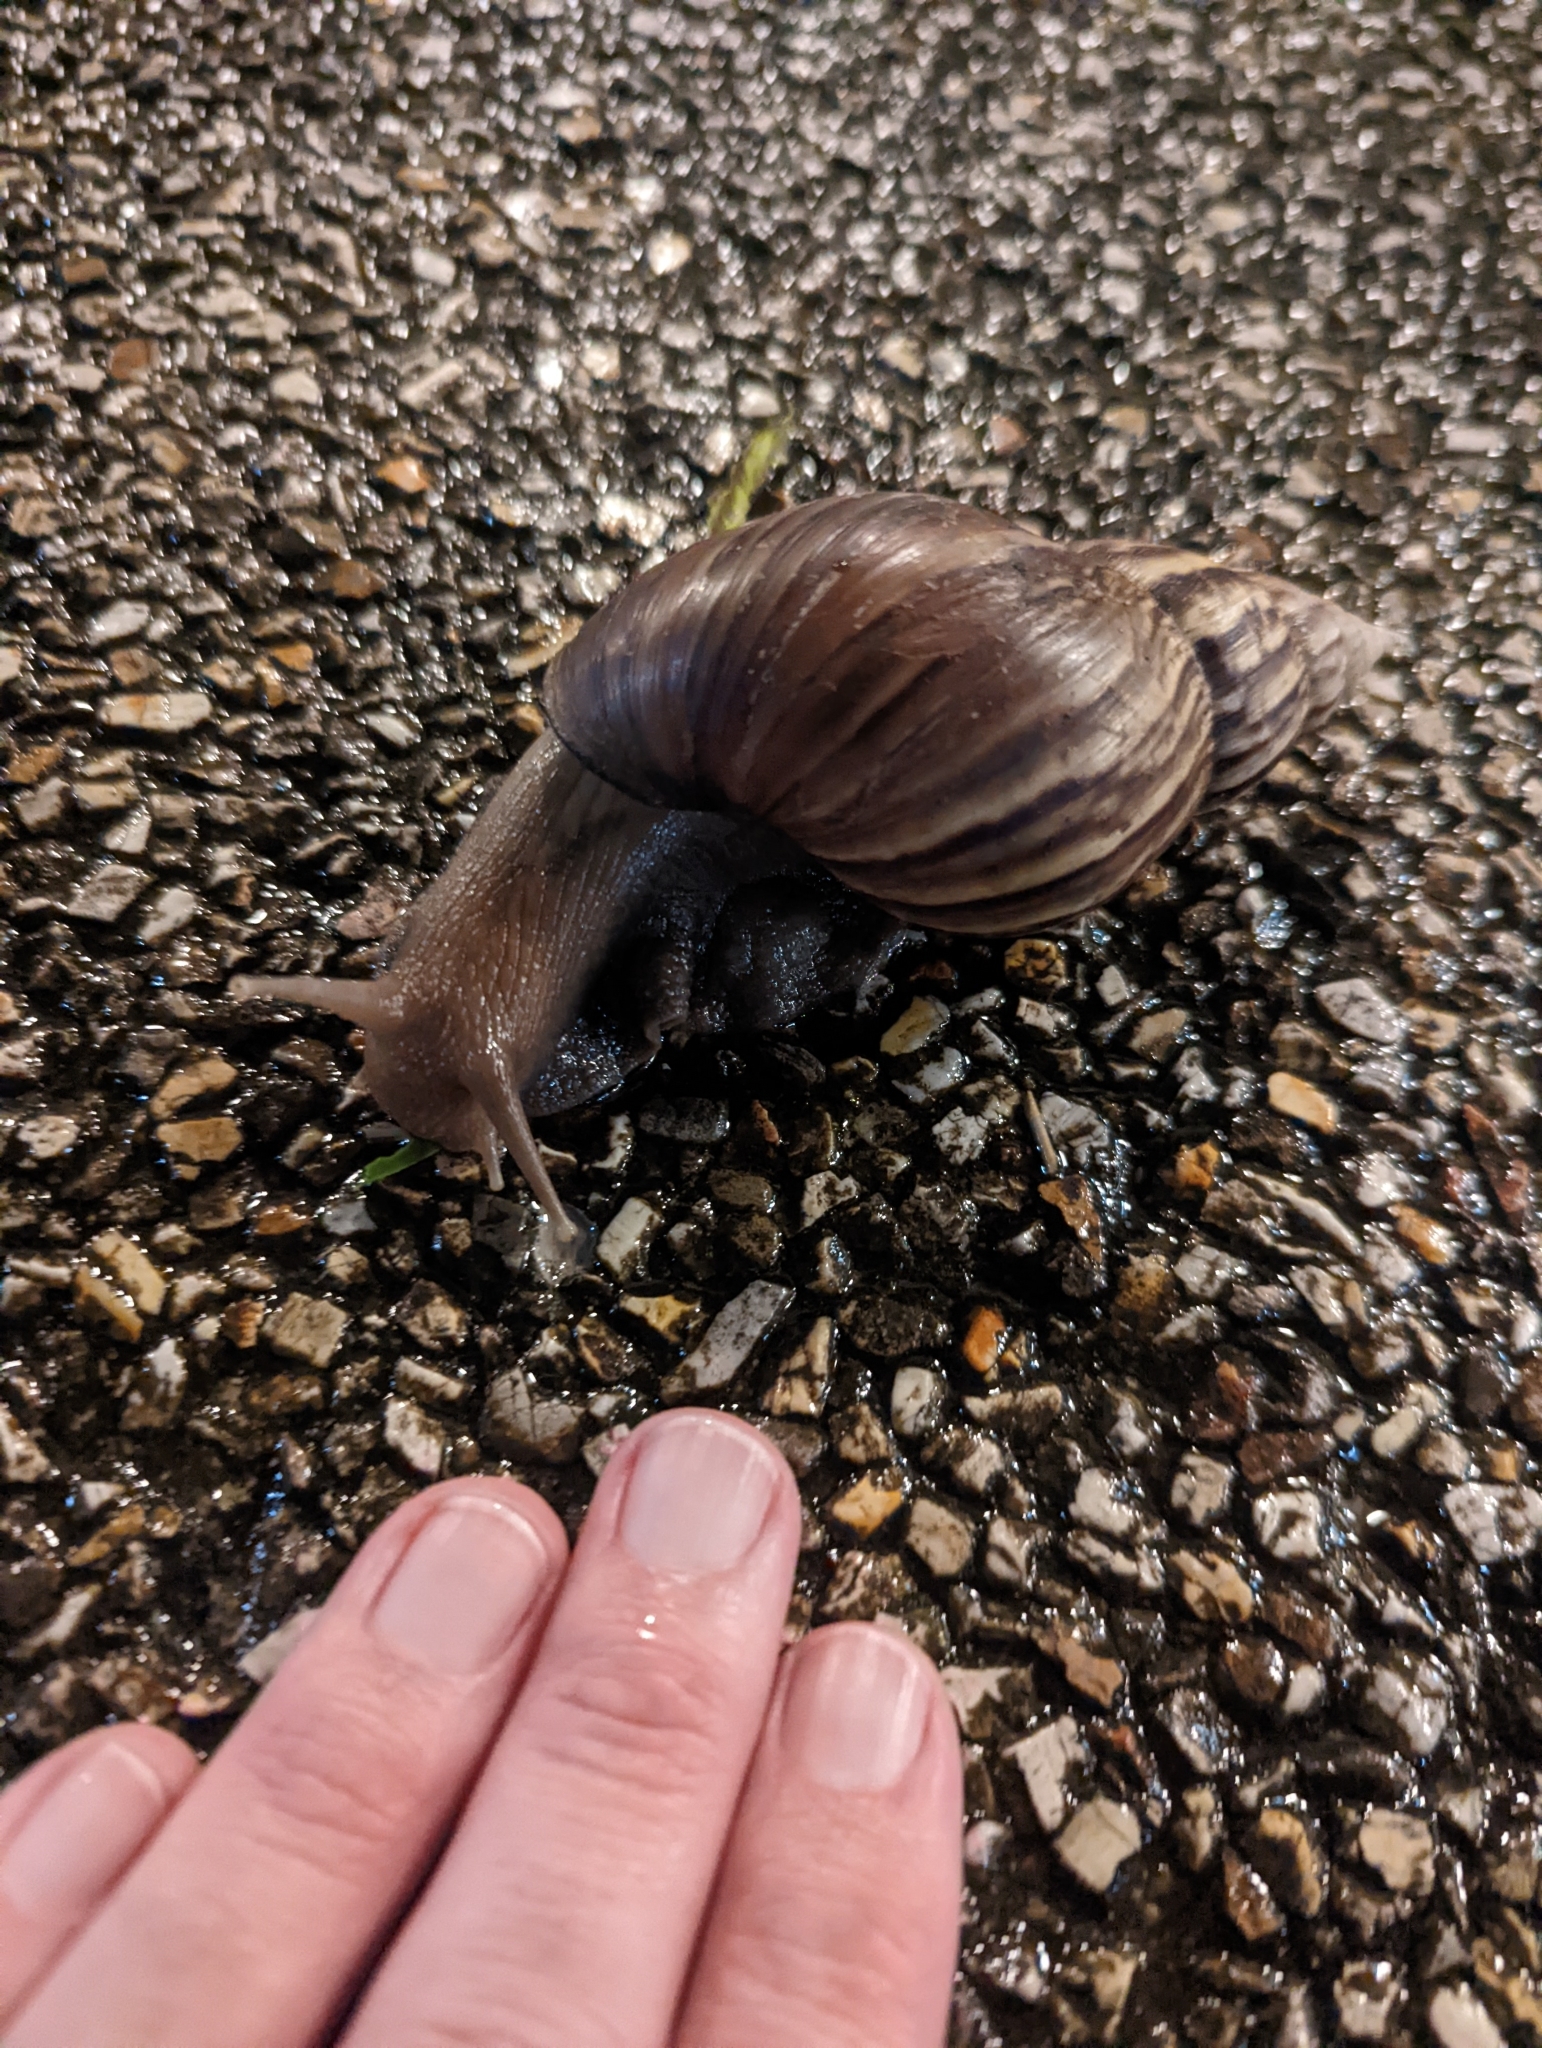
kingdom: Animalia
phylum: Mollusca
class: Gastropoda
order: Stylommatophora
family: Achatinidae
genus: Lissachatina
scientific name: Lissachatina fulica
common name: Giant african snail
